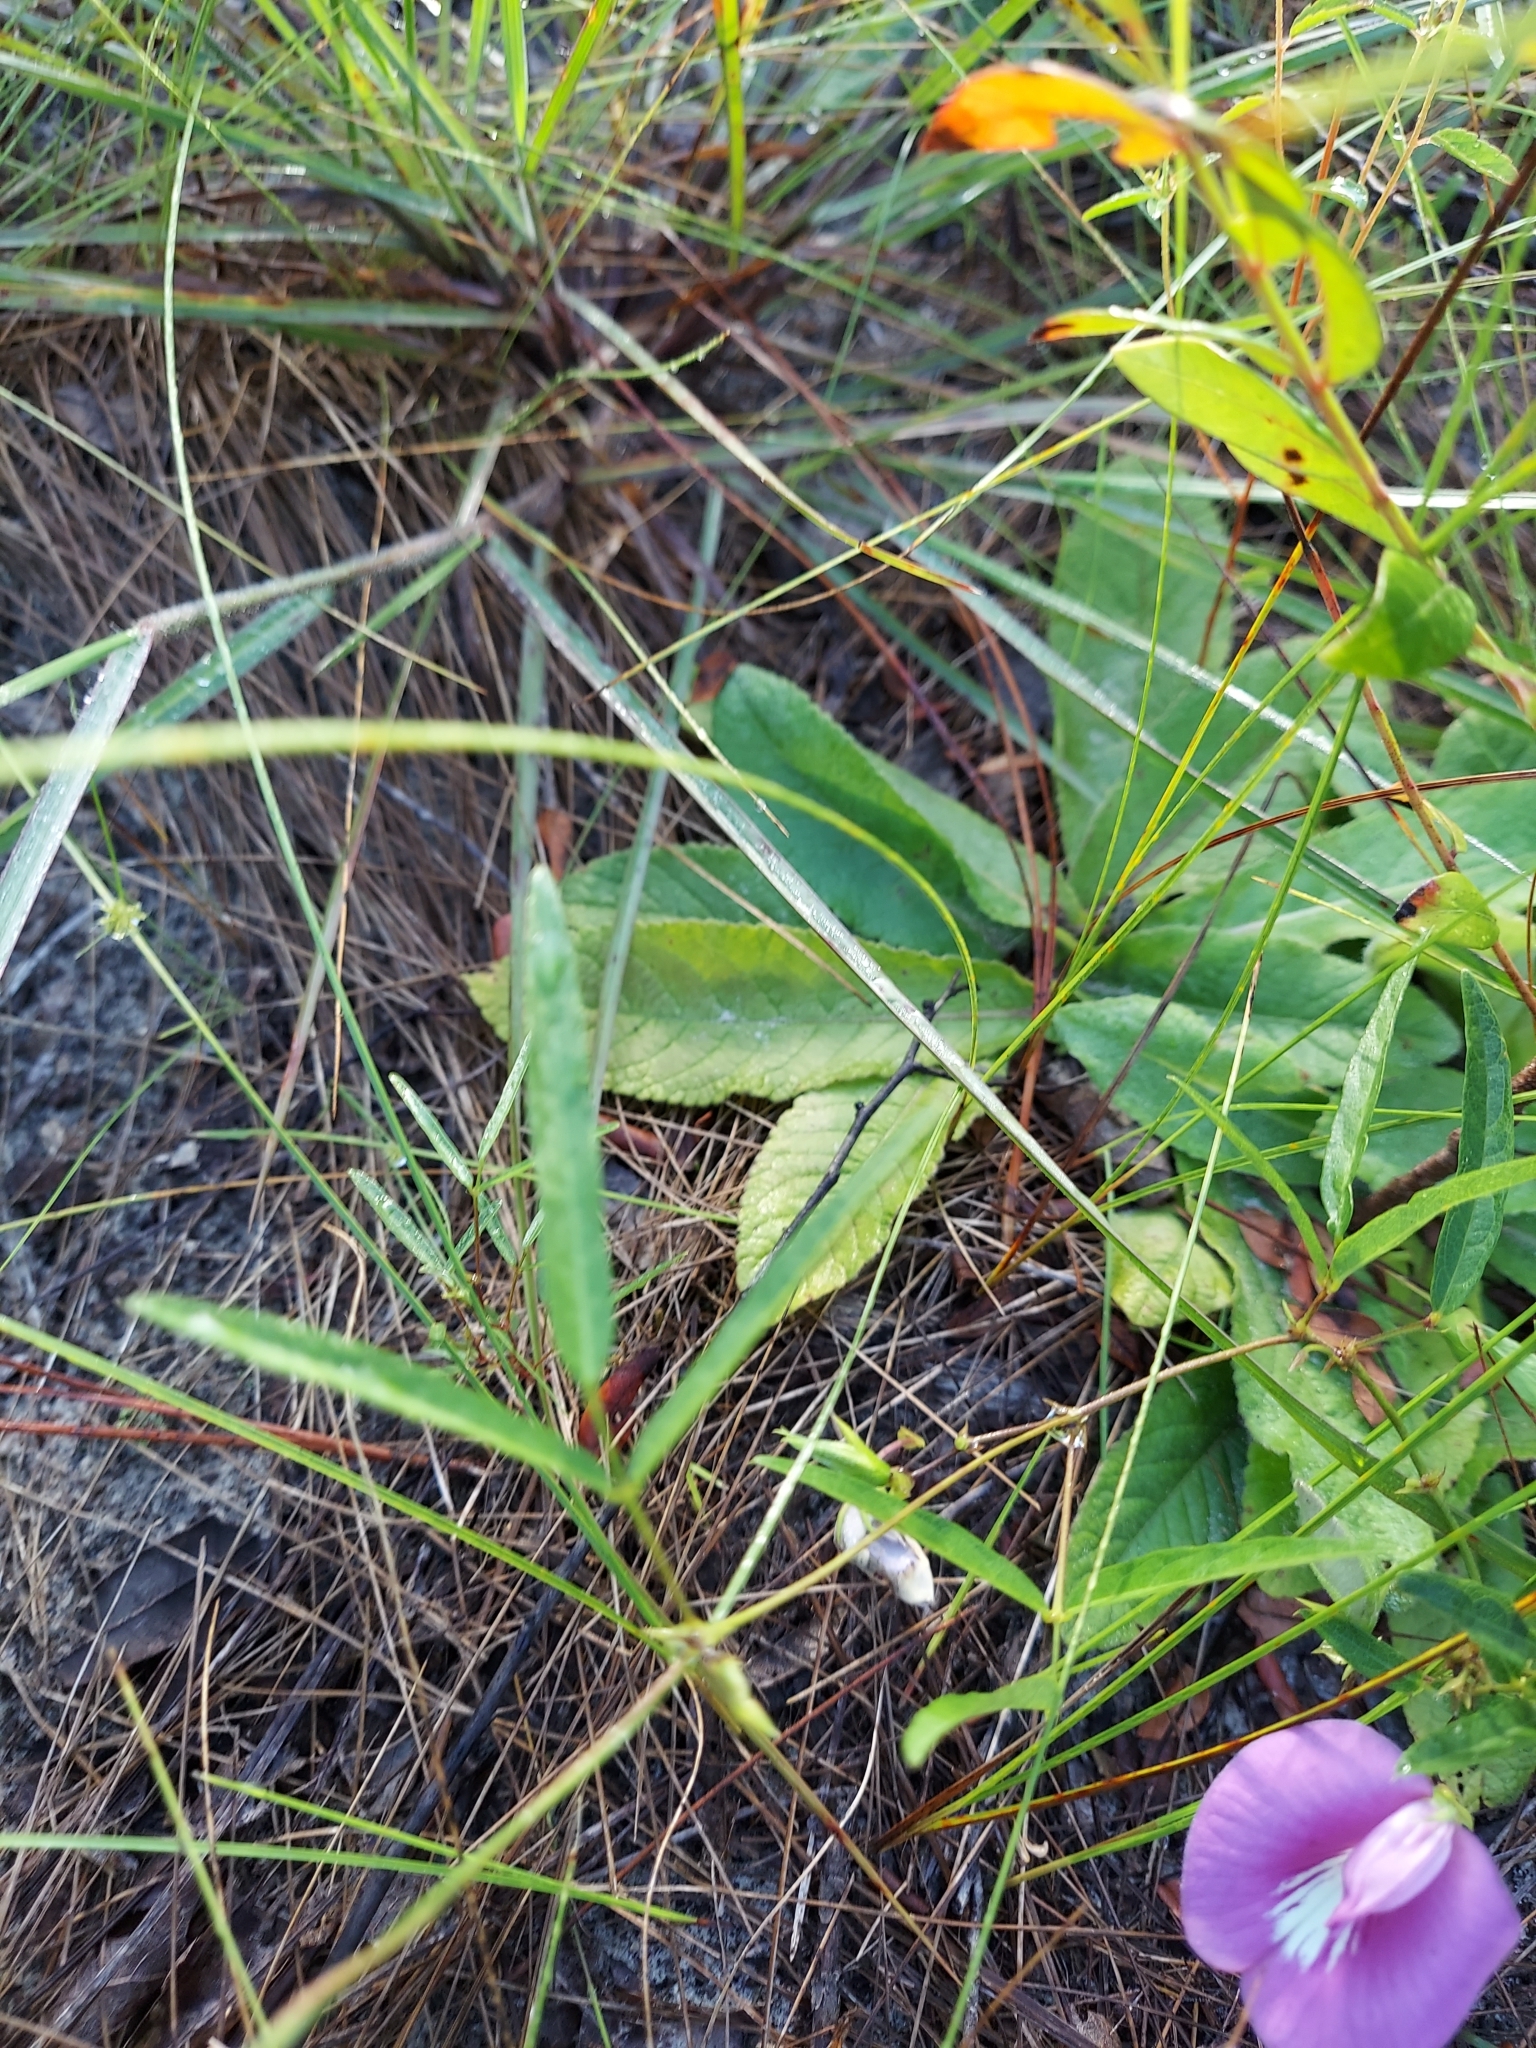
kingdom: Plantae
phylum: Tracheophyta
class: Magnoliopsida
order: Fabales
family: Fabaceae
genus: Centrosema
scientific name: Centrosema virginianum
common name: Butterfly-pea
